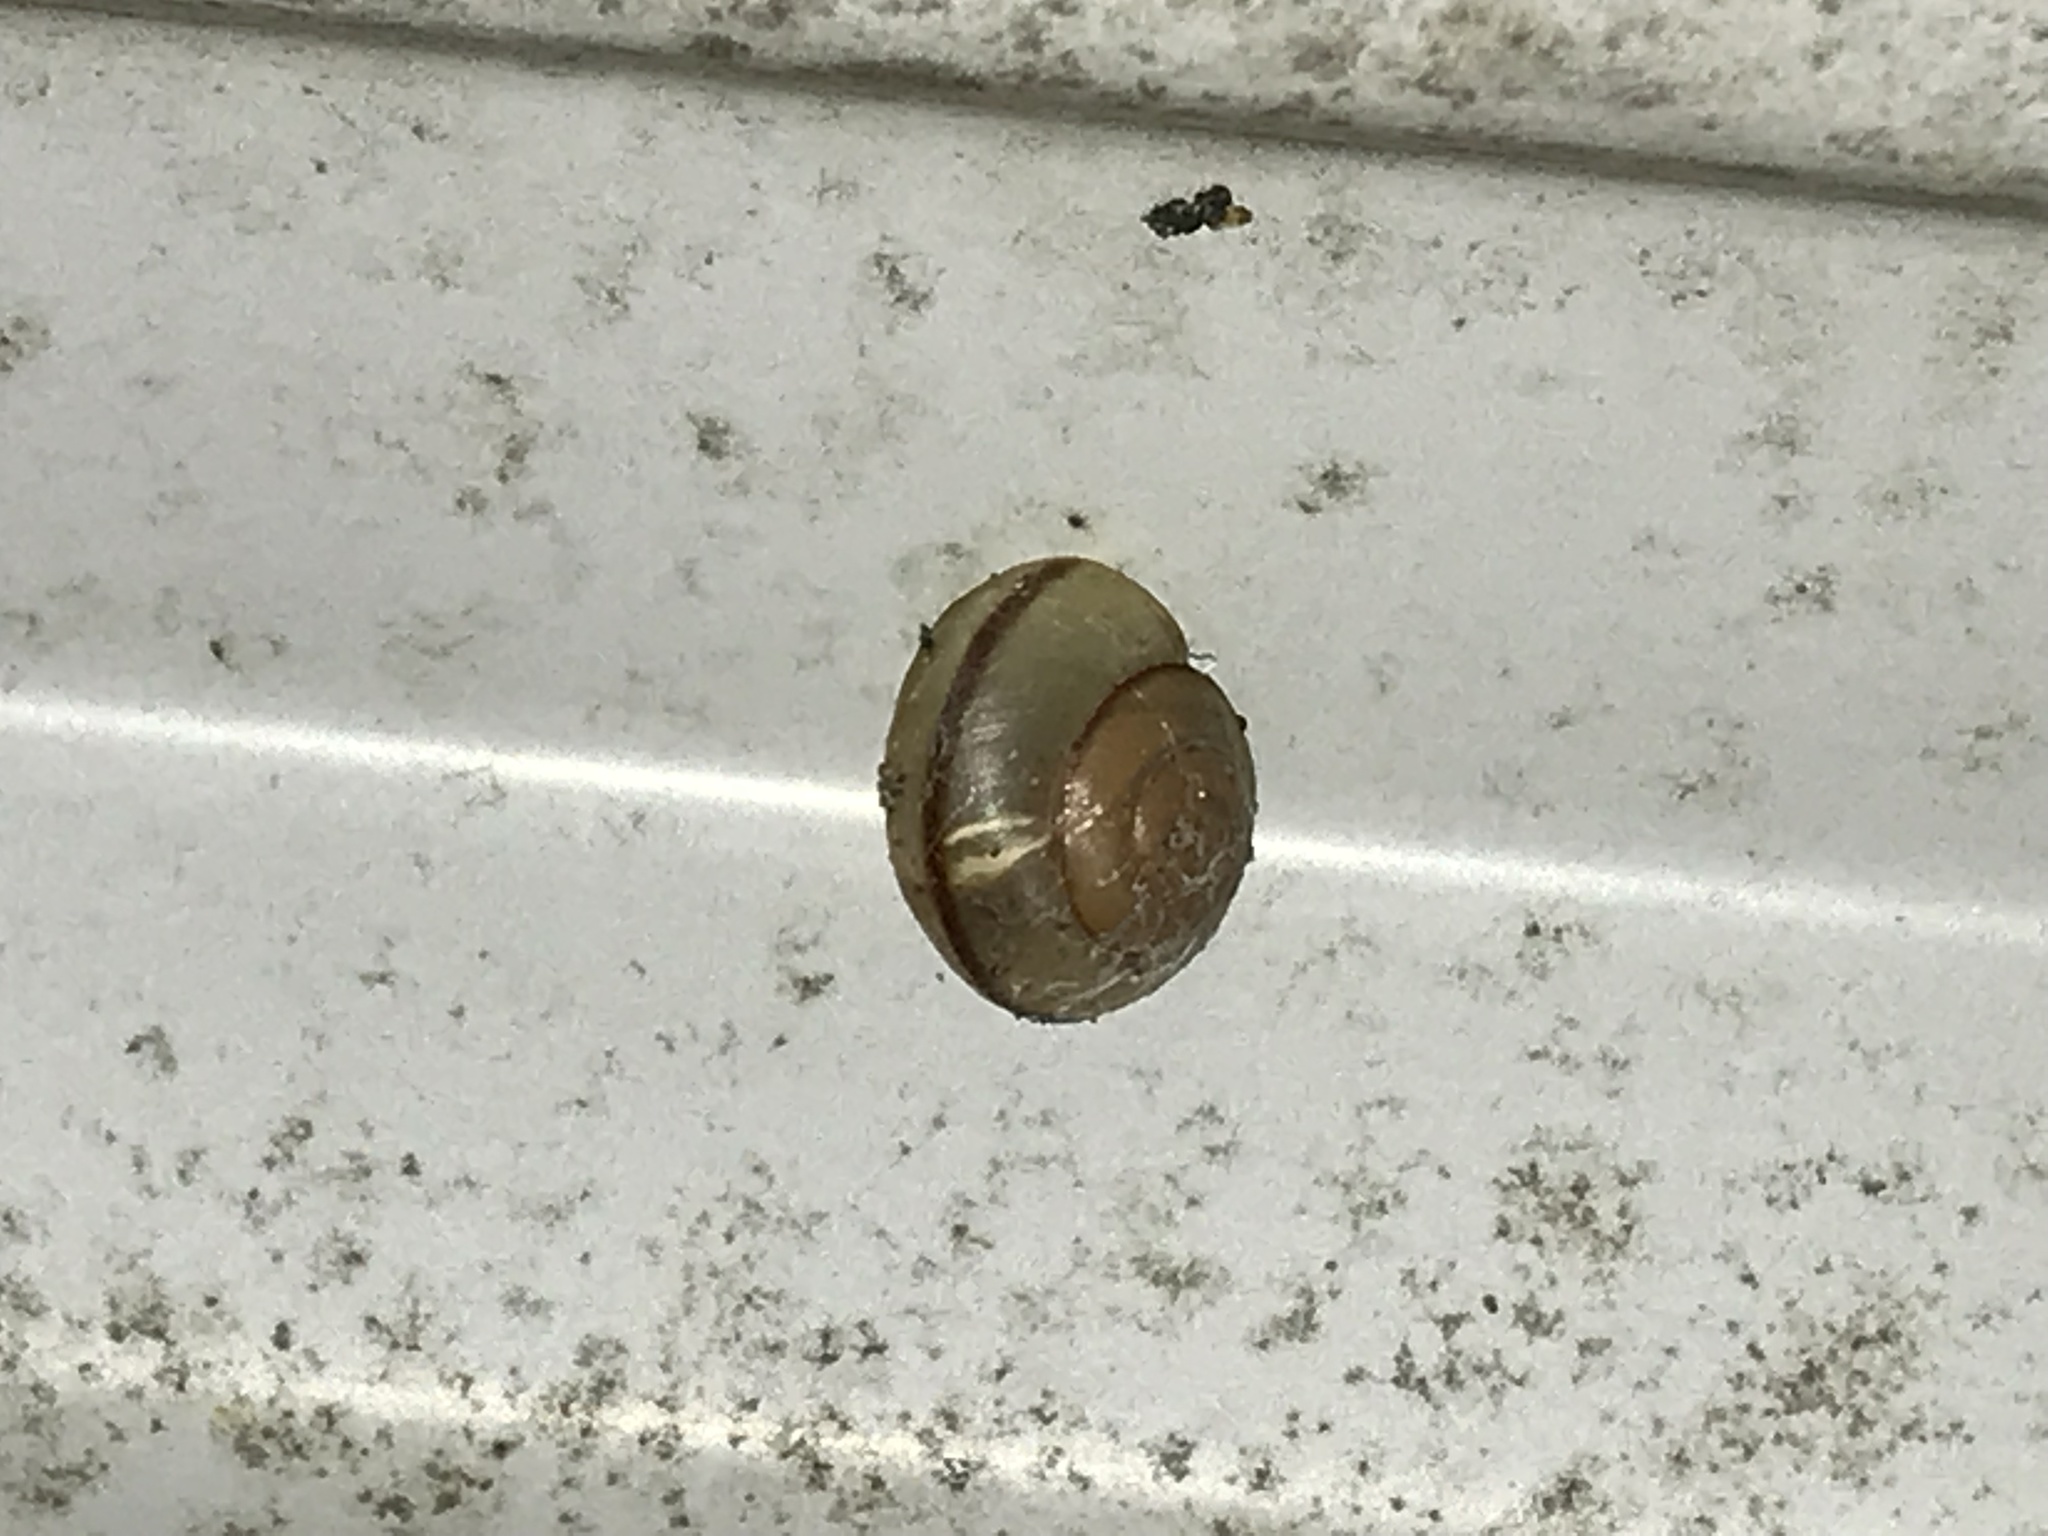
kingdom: Animalia
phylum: Mollusca
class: Gastropoda
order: Stylommatophora
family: Camaenidae
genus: Bradybaena
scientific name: Bradybaena similaris
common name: Asian trampsnail
